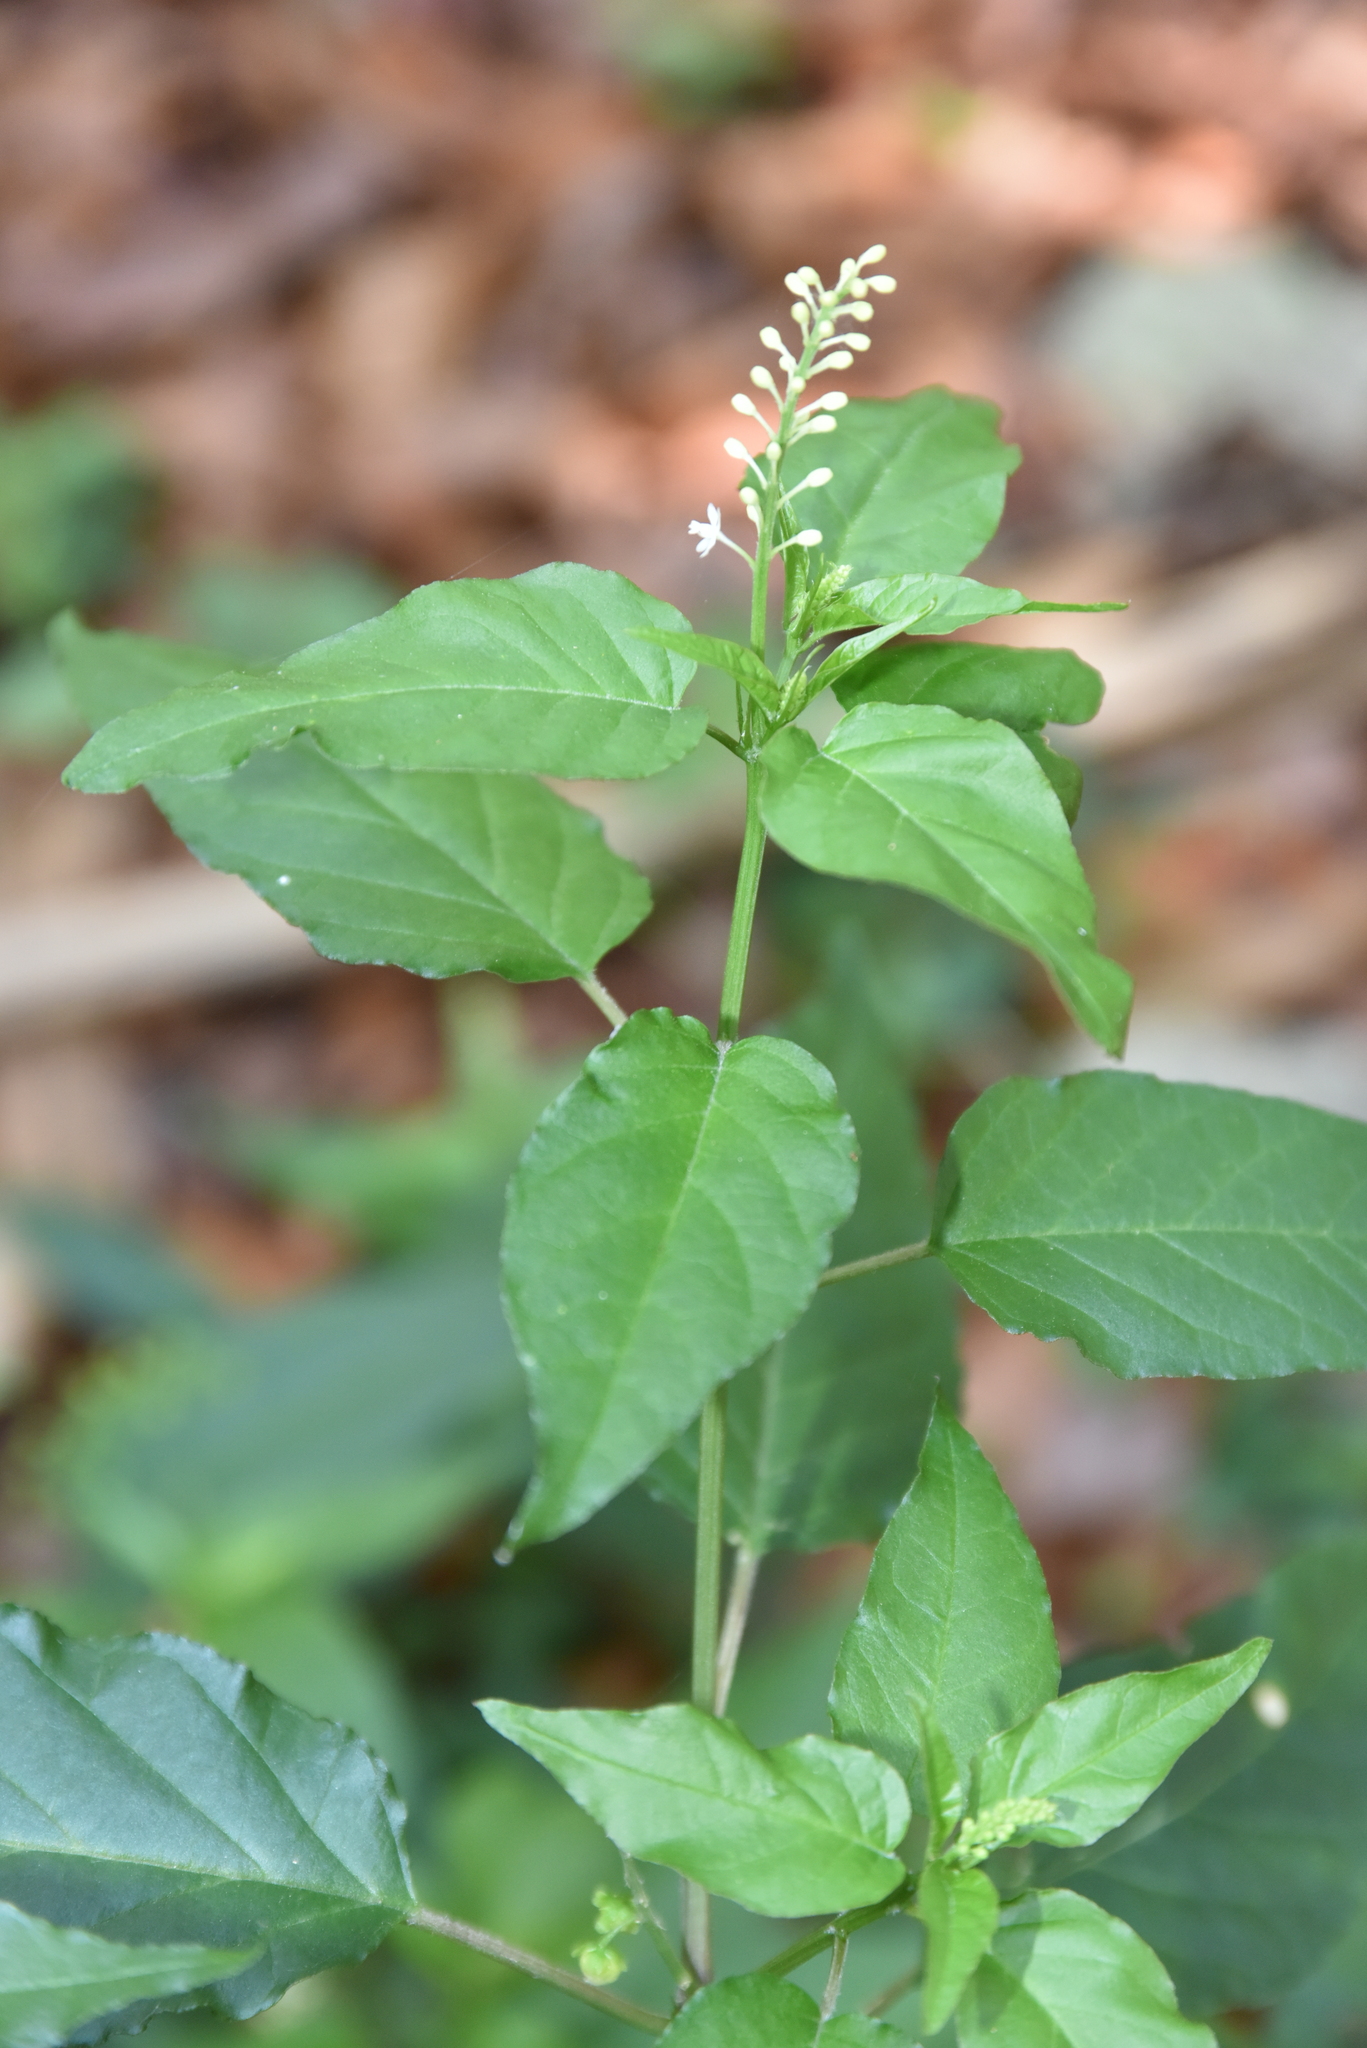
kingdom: Plantae
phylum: Tracheophyta
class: Magnoliopsida
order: Caryophyllales
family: Phytolaccaceae
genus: Rivina
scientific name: Rivina humilis
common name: Rougeplant
